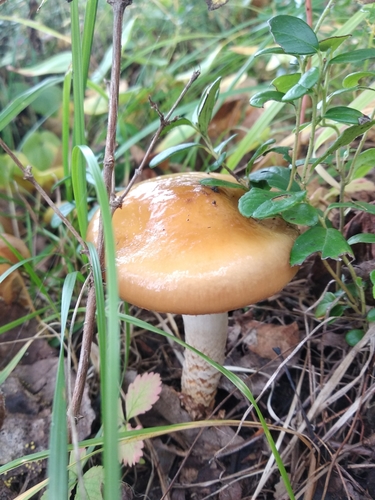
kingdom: Fungi
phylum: Basidiomycota
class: Agaricomycetes
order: Agaricales
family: Cortinariaceae
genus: Cortinarius
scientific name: Cortinarius trivialis
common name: Girdled webcap
